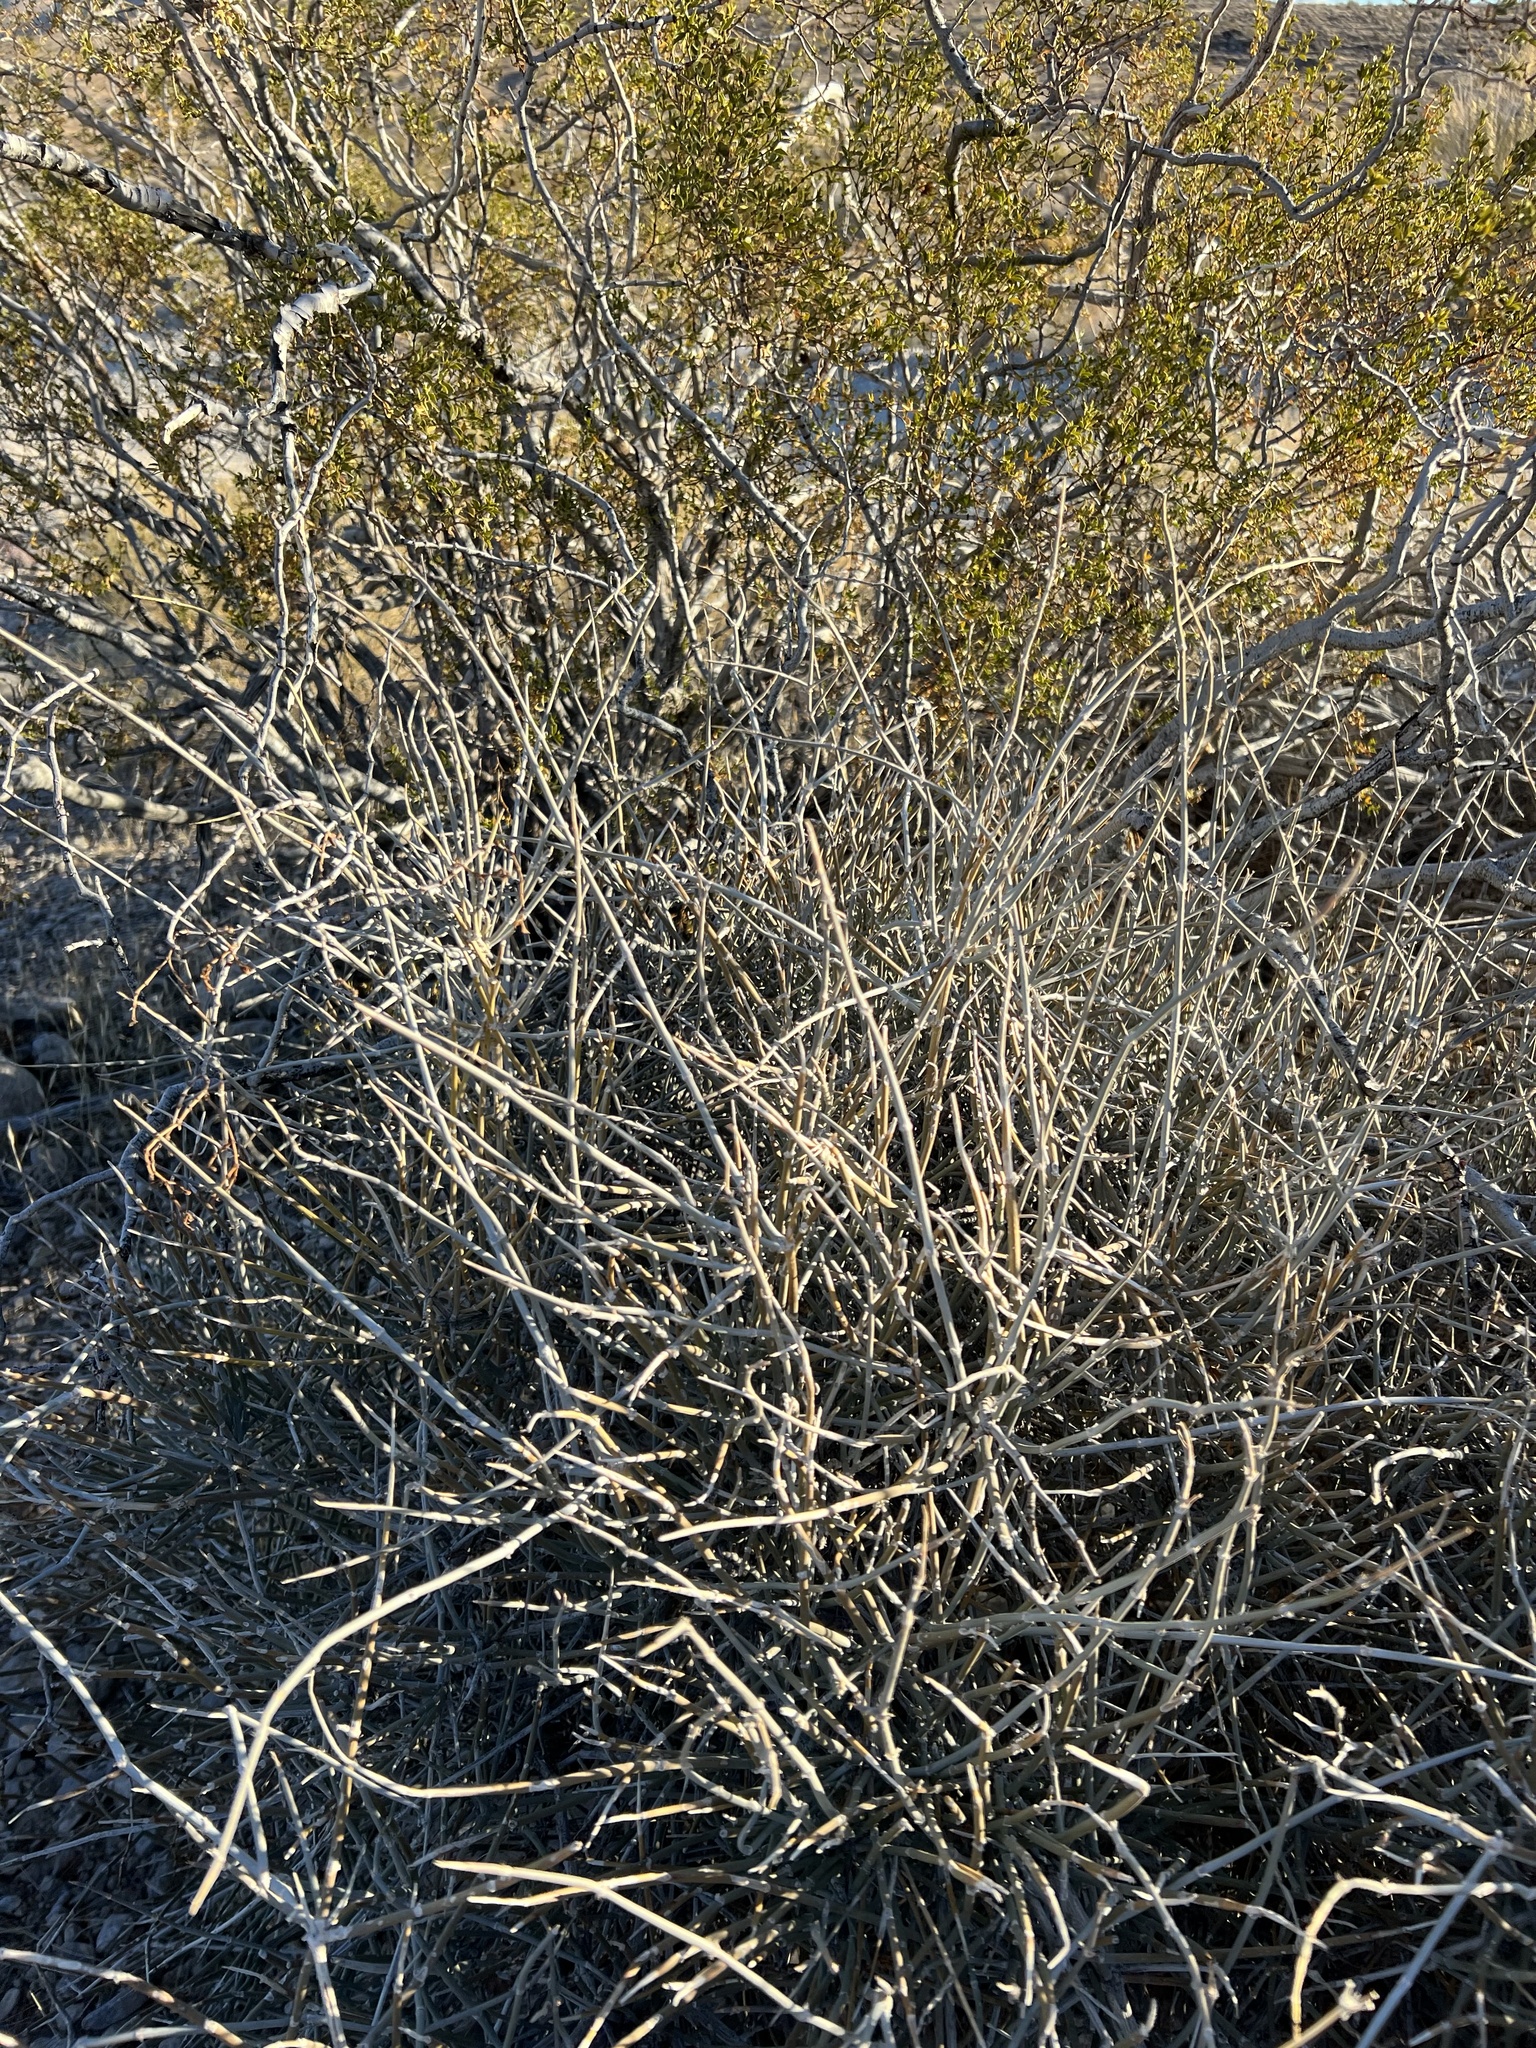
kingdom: Plantae
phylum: Tracheophyta
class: Gnetopsida
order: Ephedrales
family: Ephedraceae
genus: Ephedra
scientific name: Ephedra nevadensis
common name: Gray ephedra
